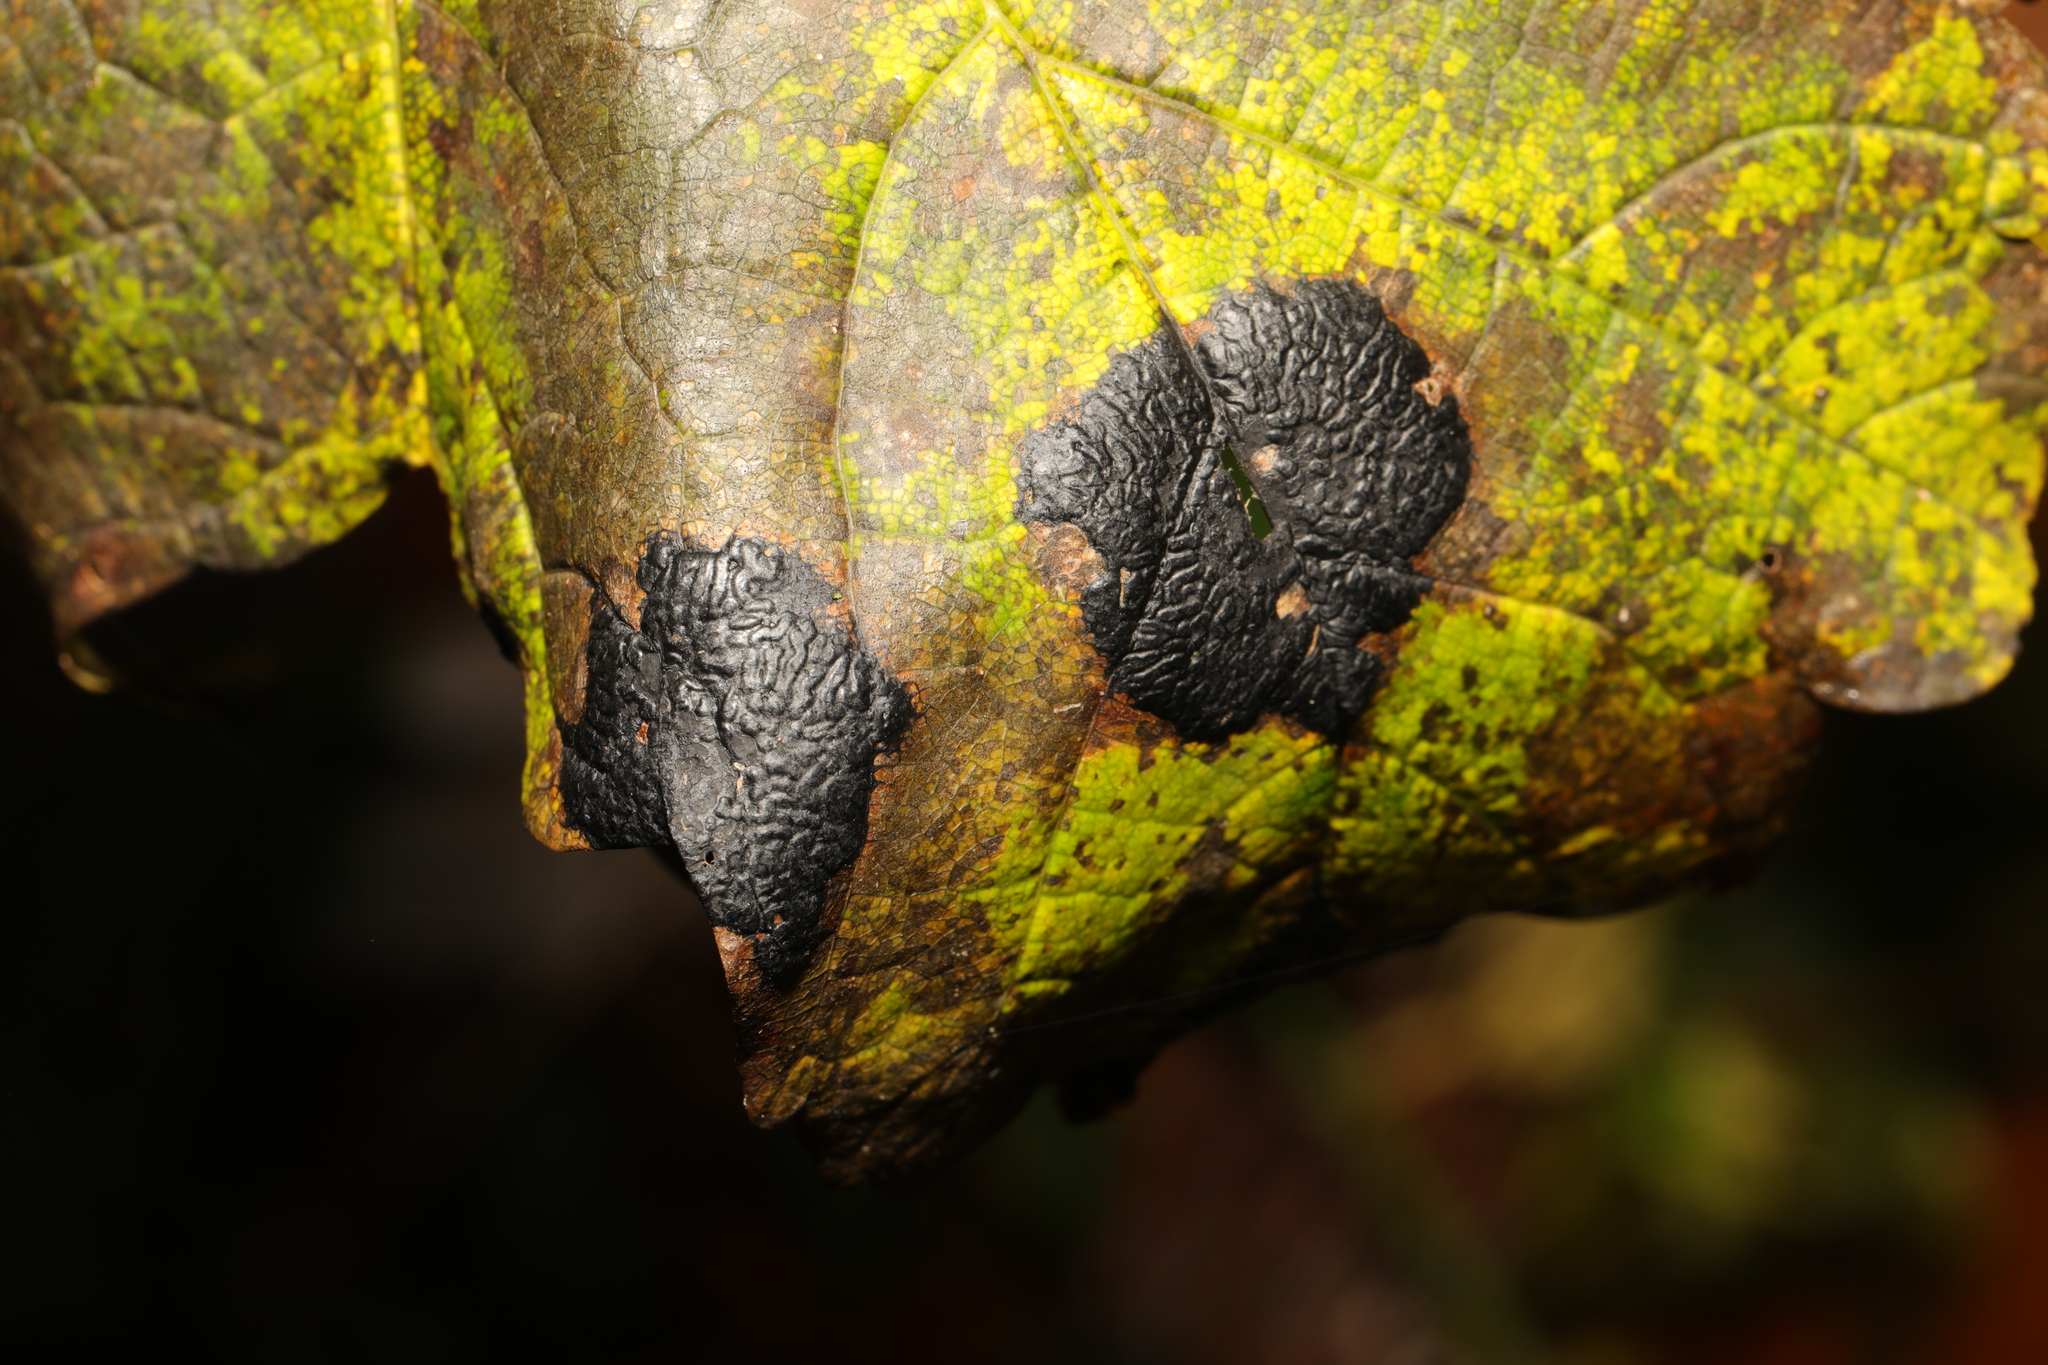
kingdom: Fungi
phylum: Ascomycota
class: Leotiomycetes
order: Rhytismatales
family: Rhytismataceae
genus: Rhytisma
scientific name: Rhytisma acerinum
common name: European tar spot
